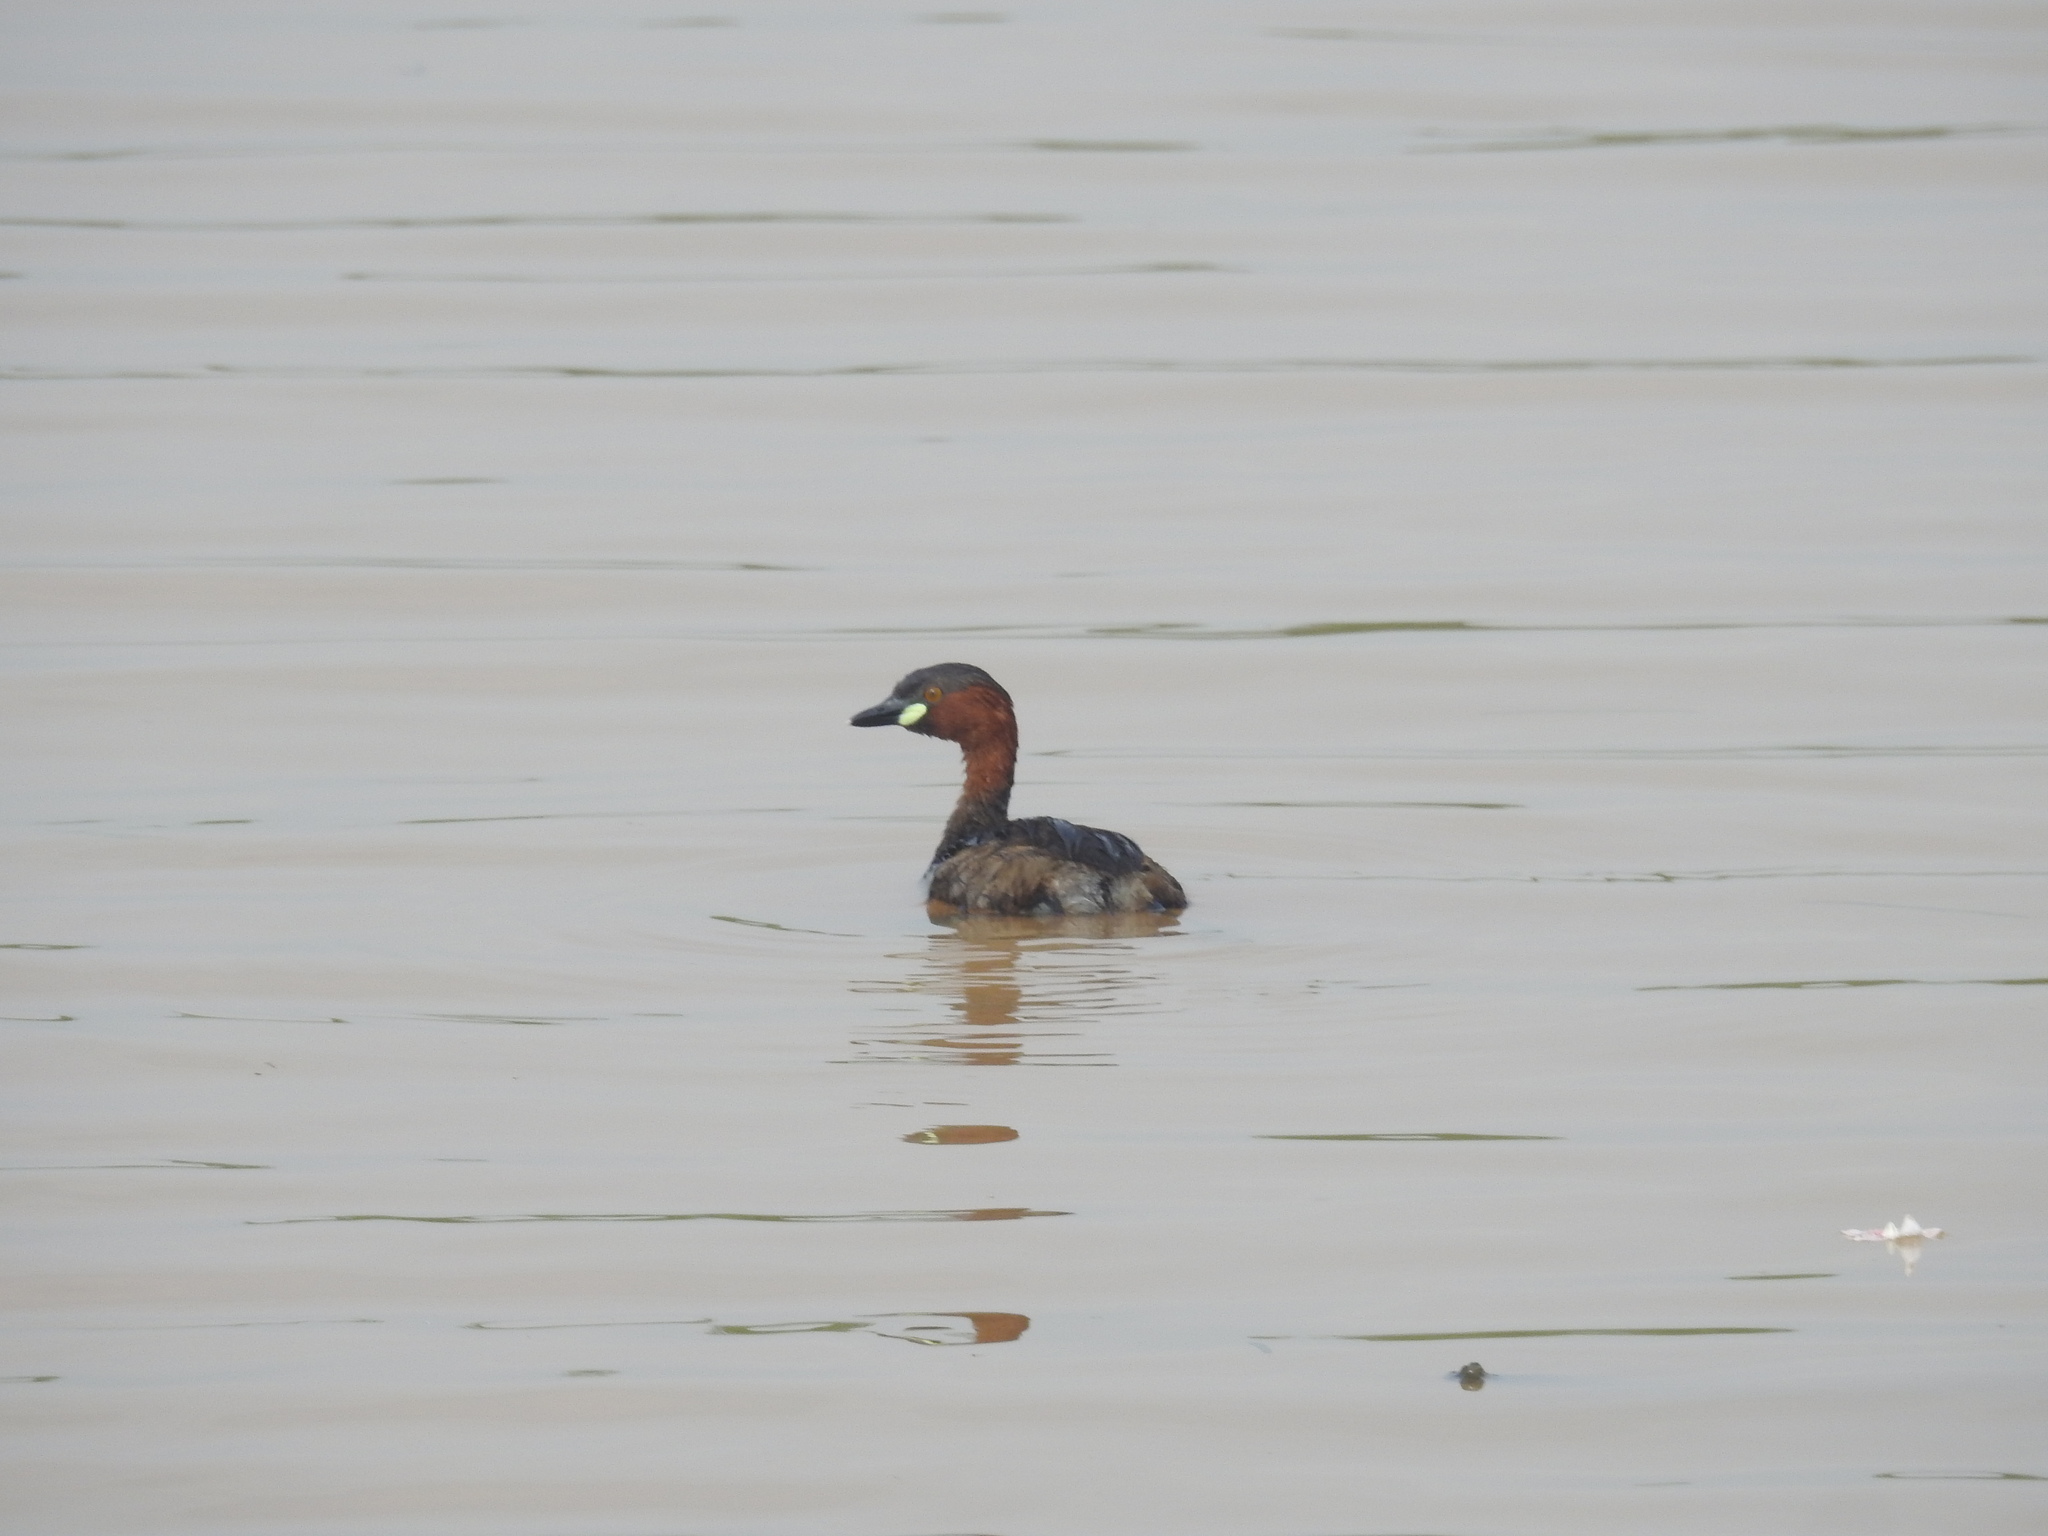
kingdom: Animalia
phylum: Chordata
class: Aves
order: Podicipediformes
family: Podicipedidae
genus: Tachybaptus
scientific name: Tachybaptus ruficollis
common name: Little grebe
